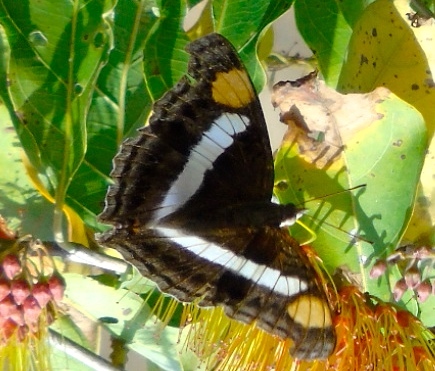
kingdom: Animalia
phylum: Arthropoda
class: Insecta
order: Lepidoptera
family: Nymphalidae
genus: Doxocopa
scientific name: Doxocopa laure
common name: Silver emperor
